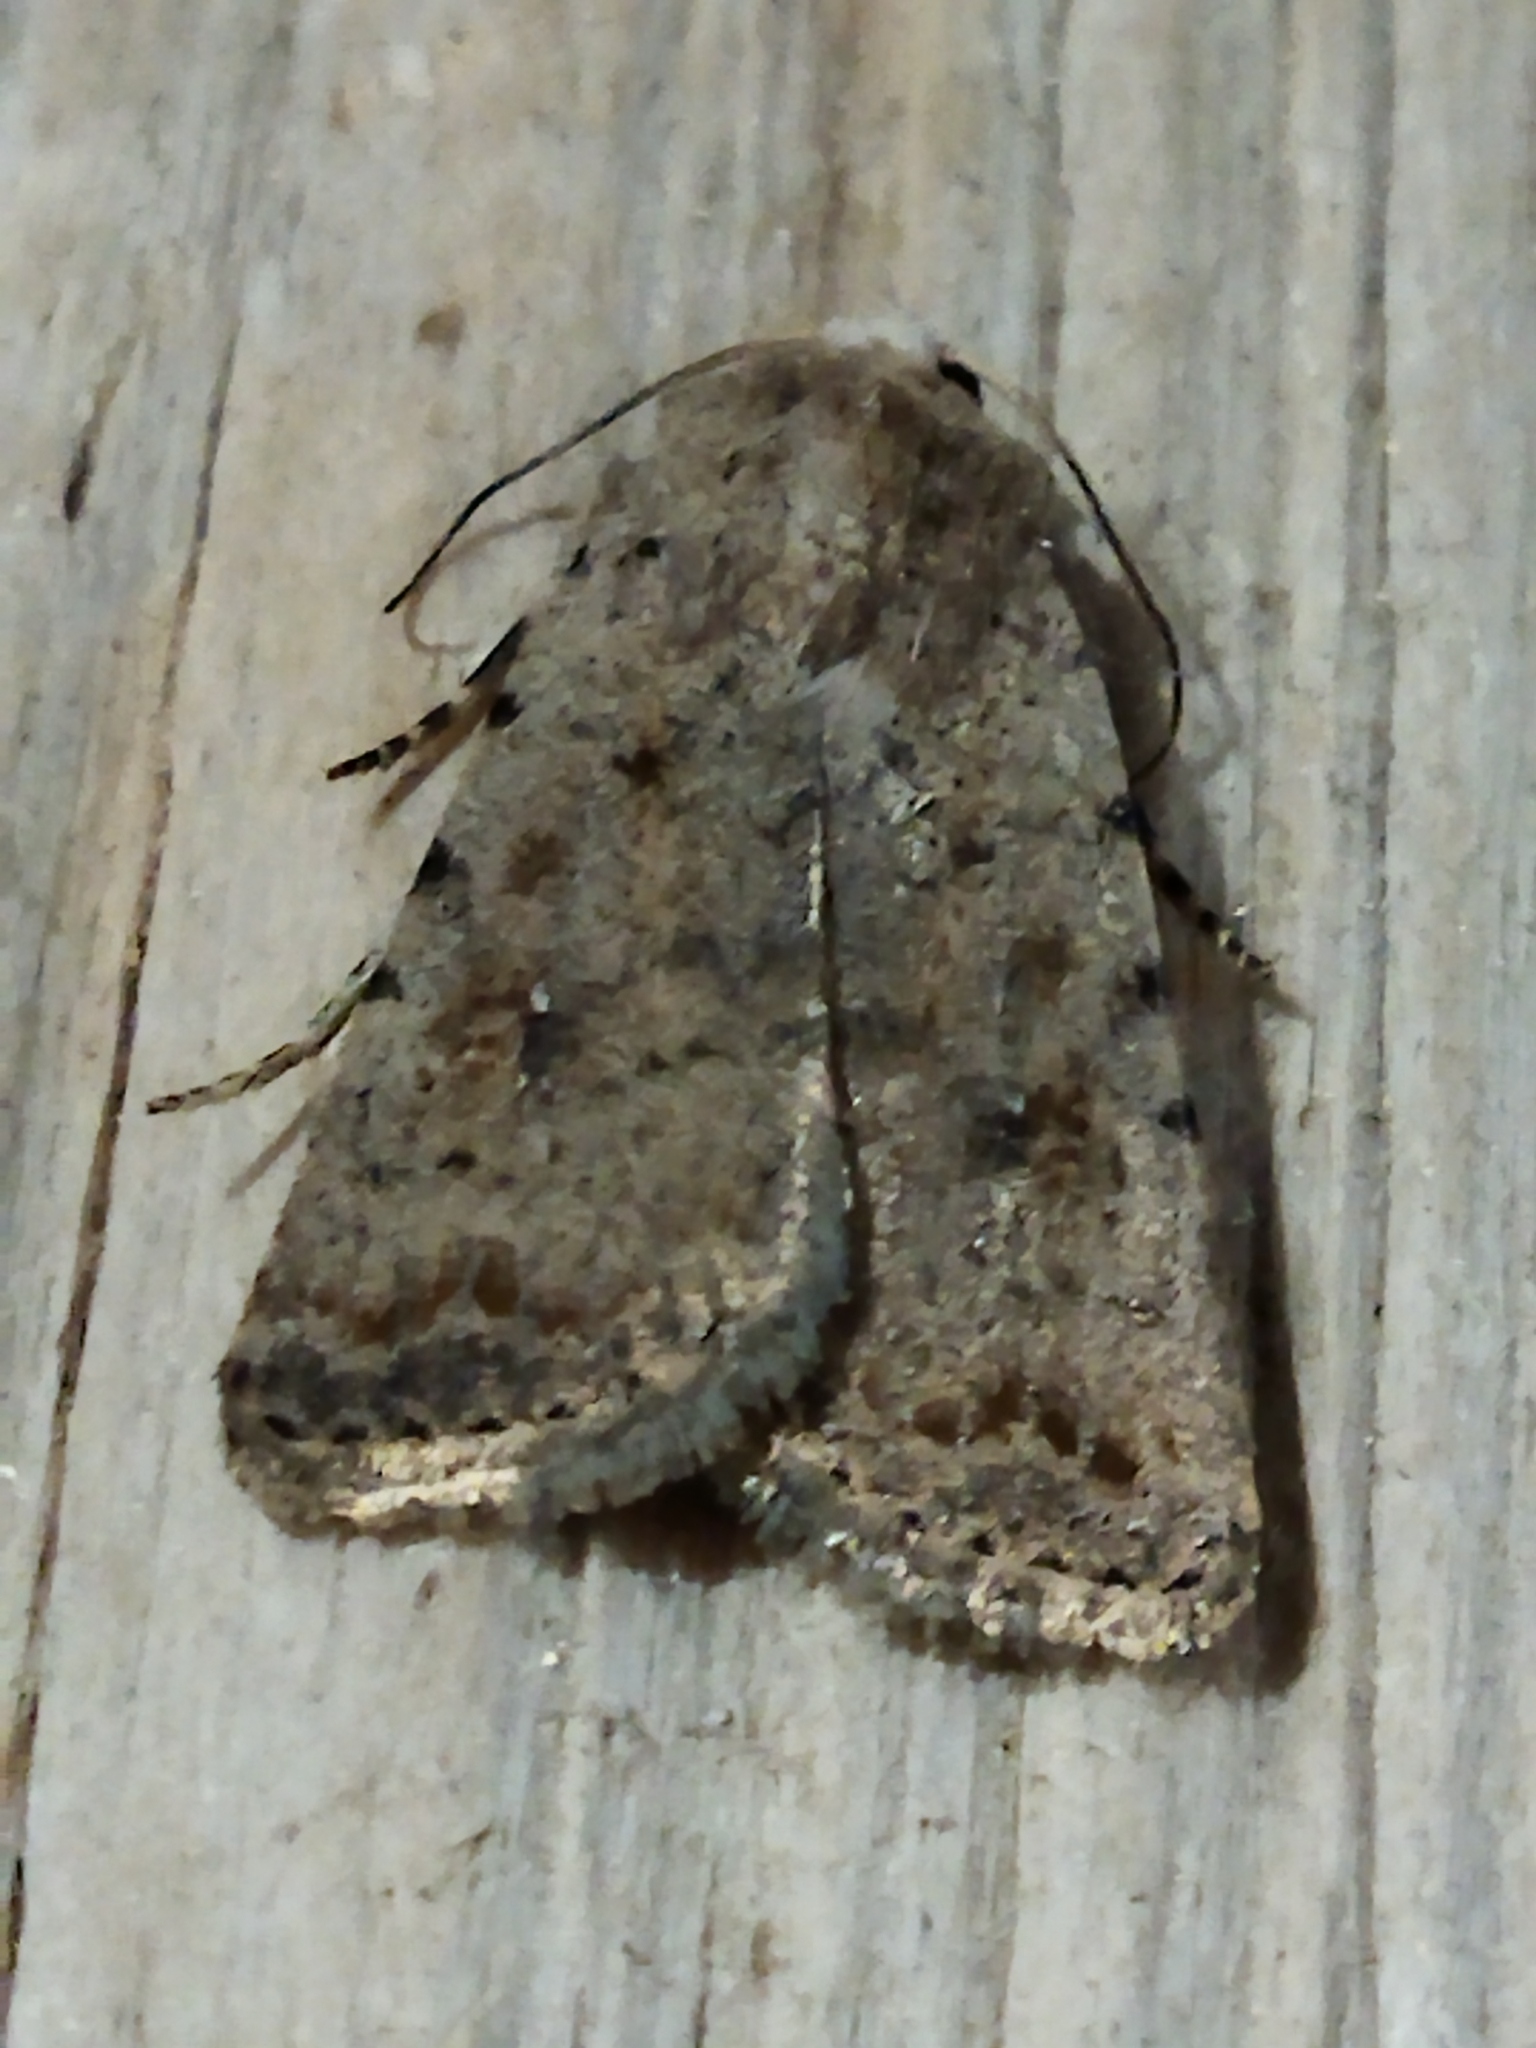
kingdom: Animalia
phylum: Arthropoda
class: Insecta
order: Lepidoptera
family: Noctuidae
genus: Caradrina
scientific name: Caradrina clavipalpis
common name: Pale mottled willow
